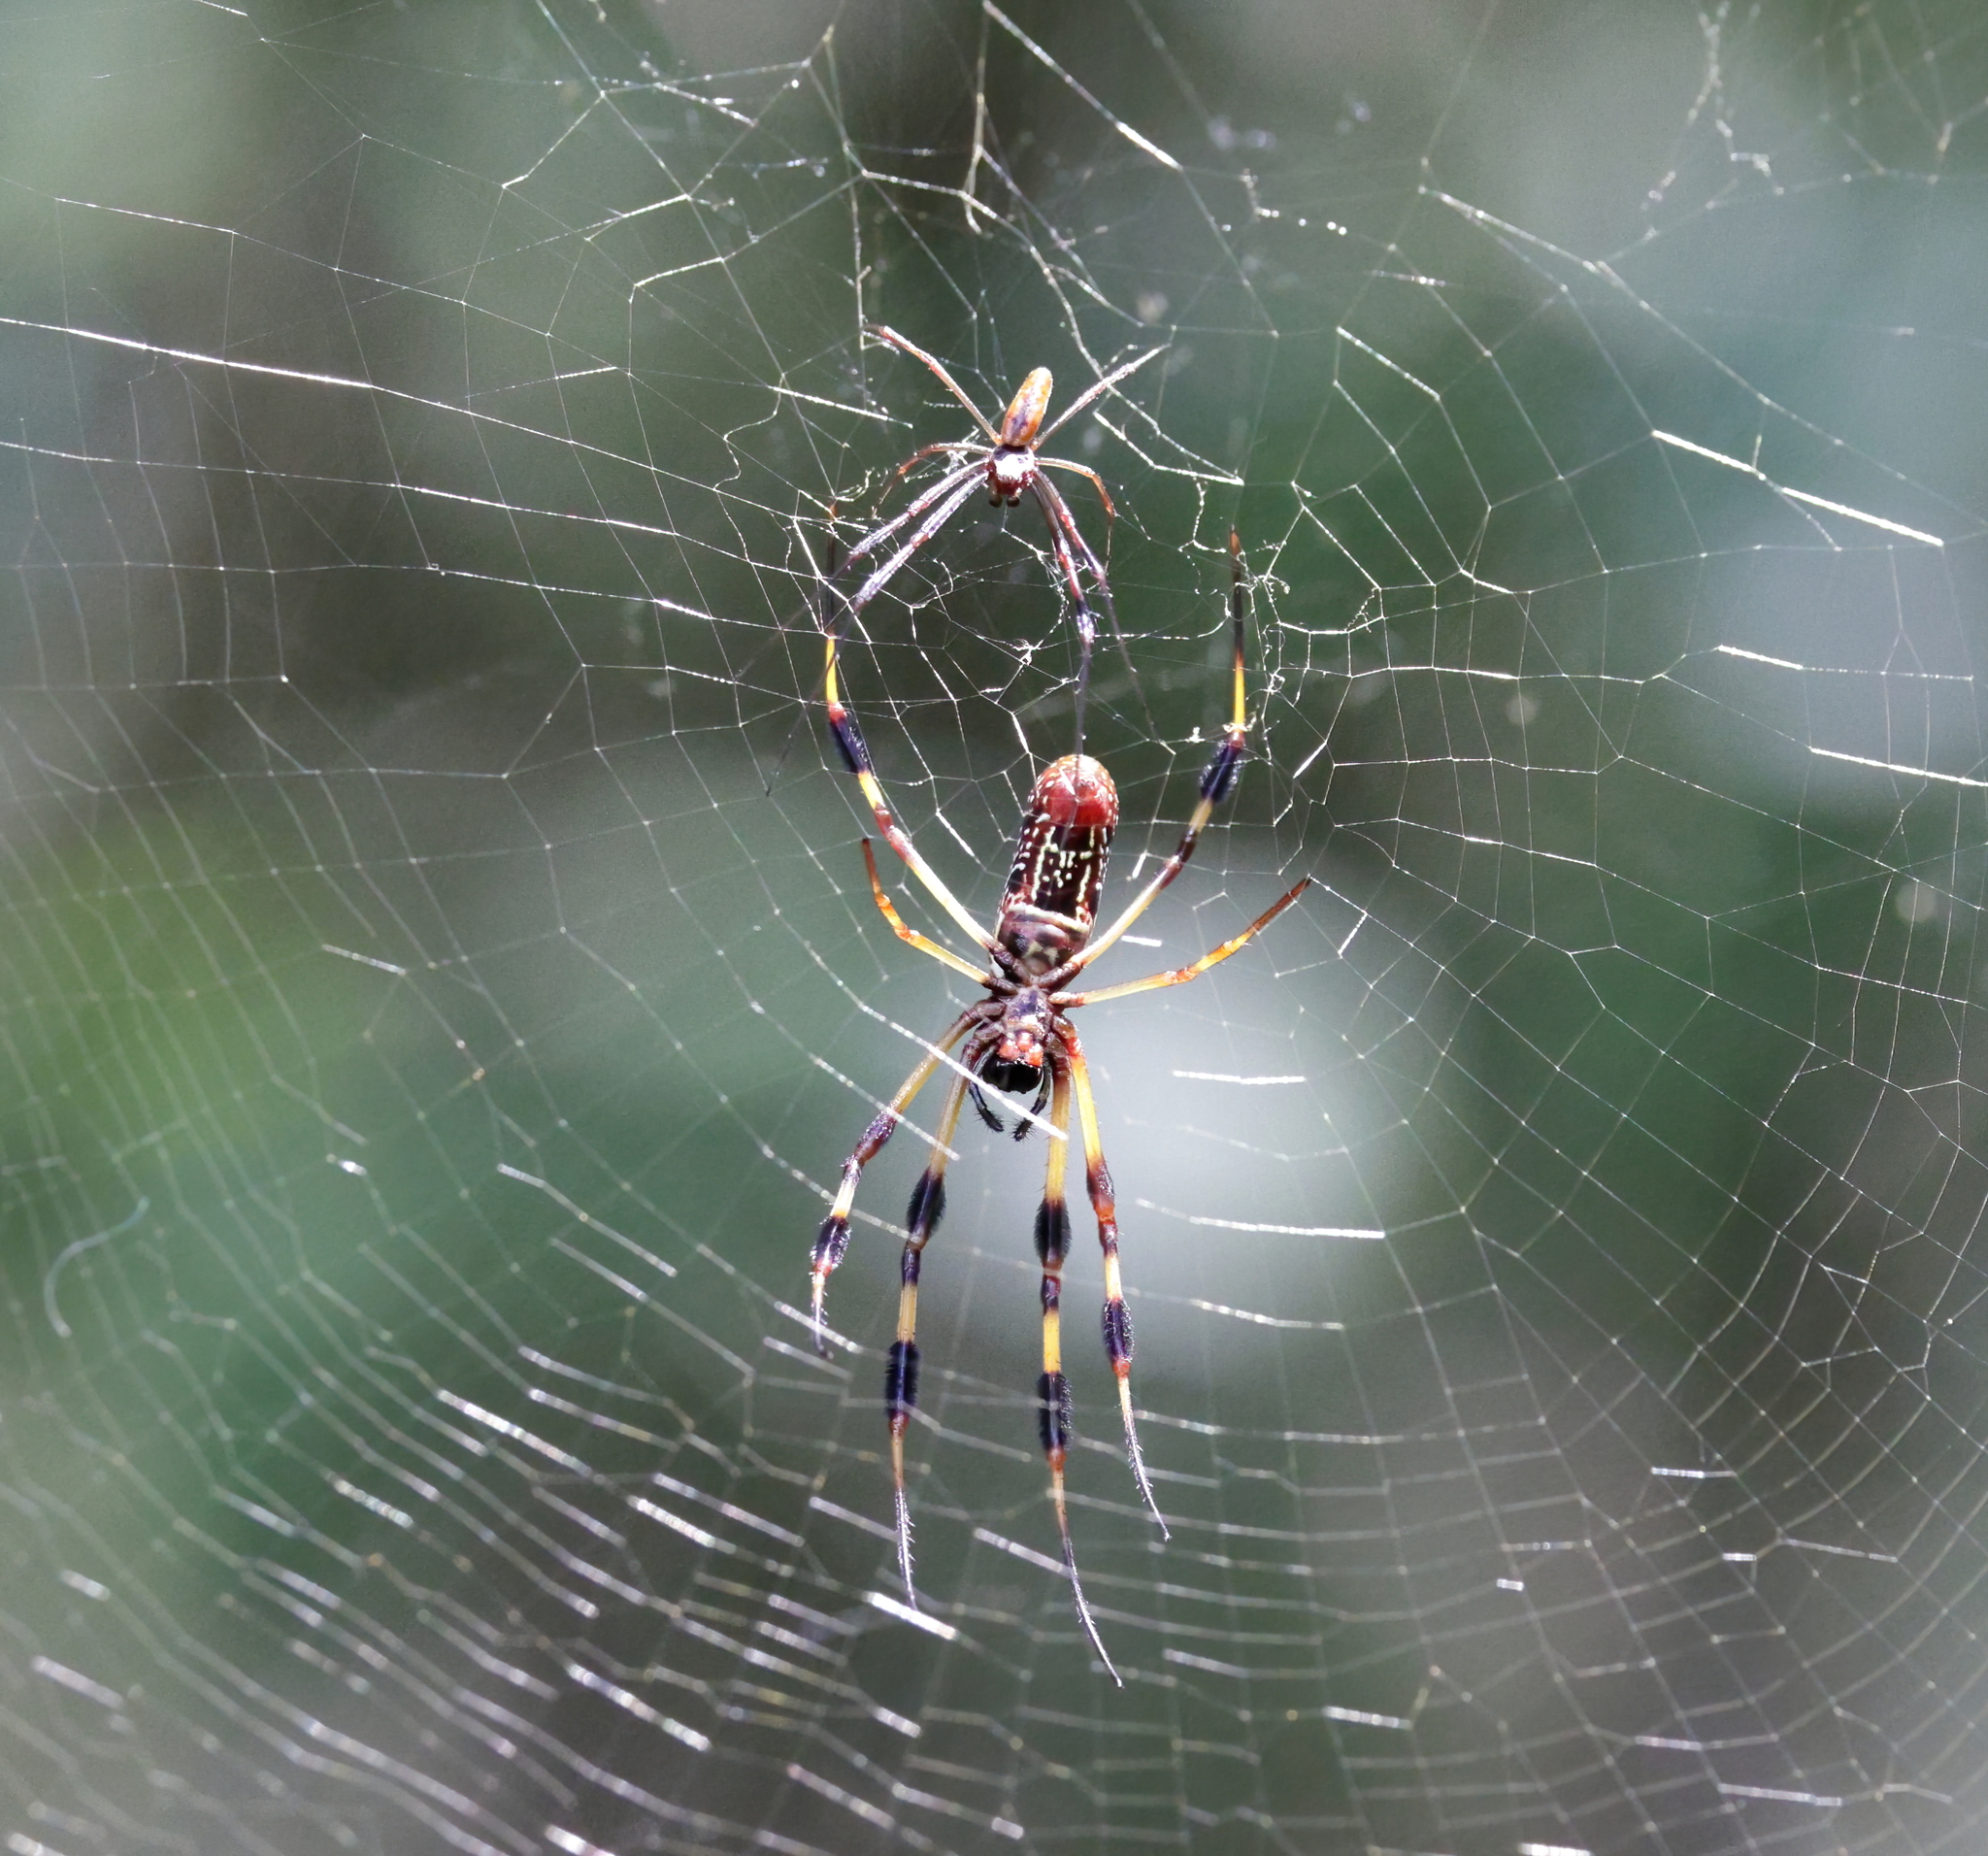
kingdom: Animalia
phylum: Arthropoda
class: Arachnida
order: Araneae
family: Araneidae
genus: Trichonephila
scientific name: Trichonephila clavipes
